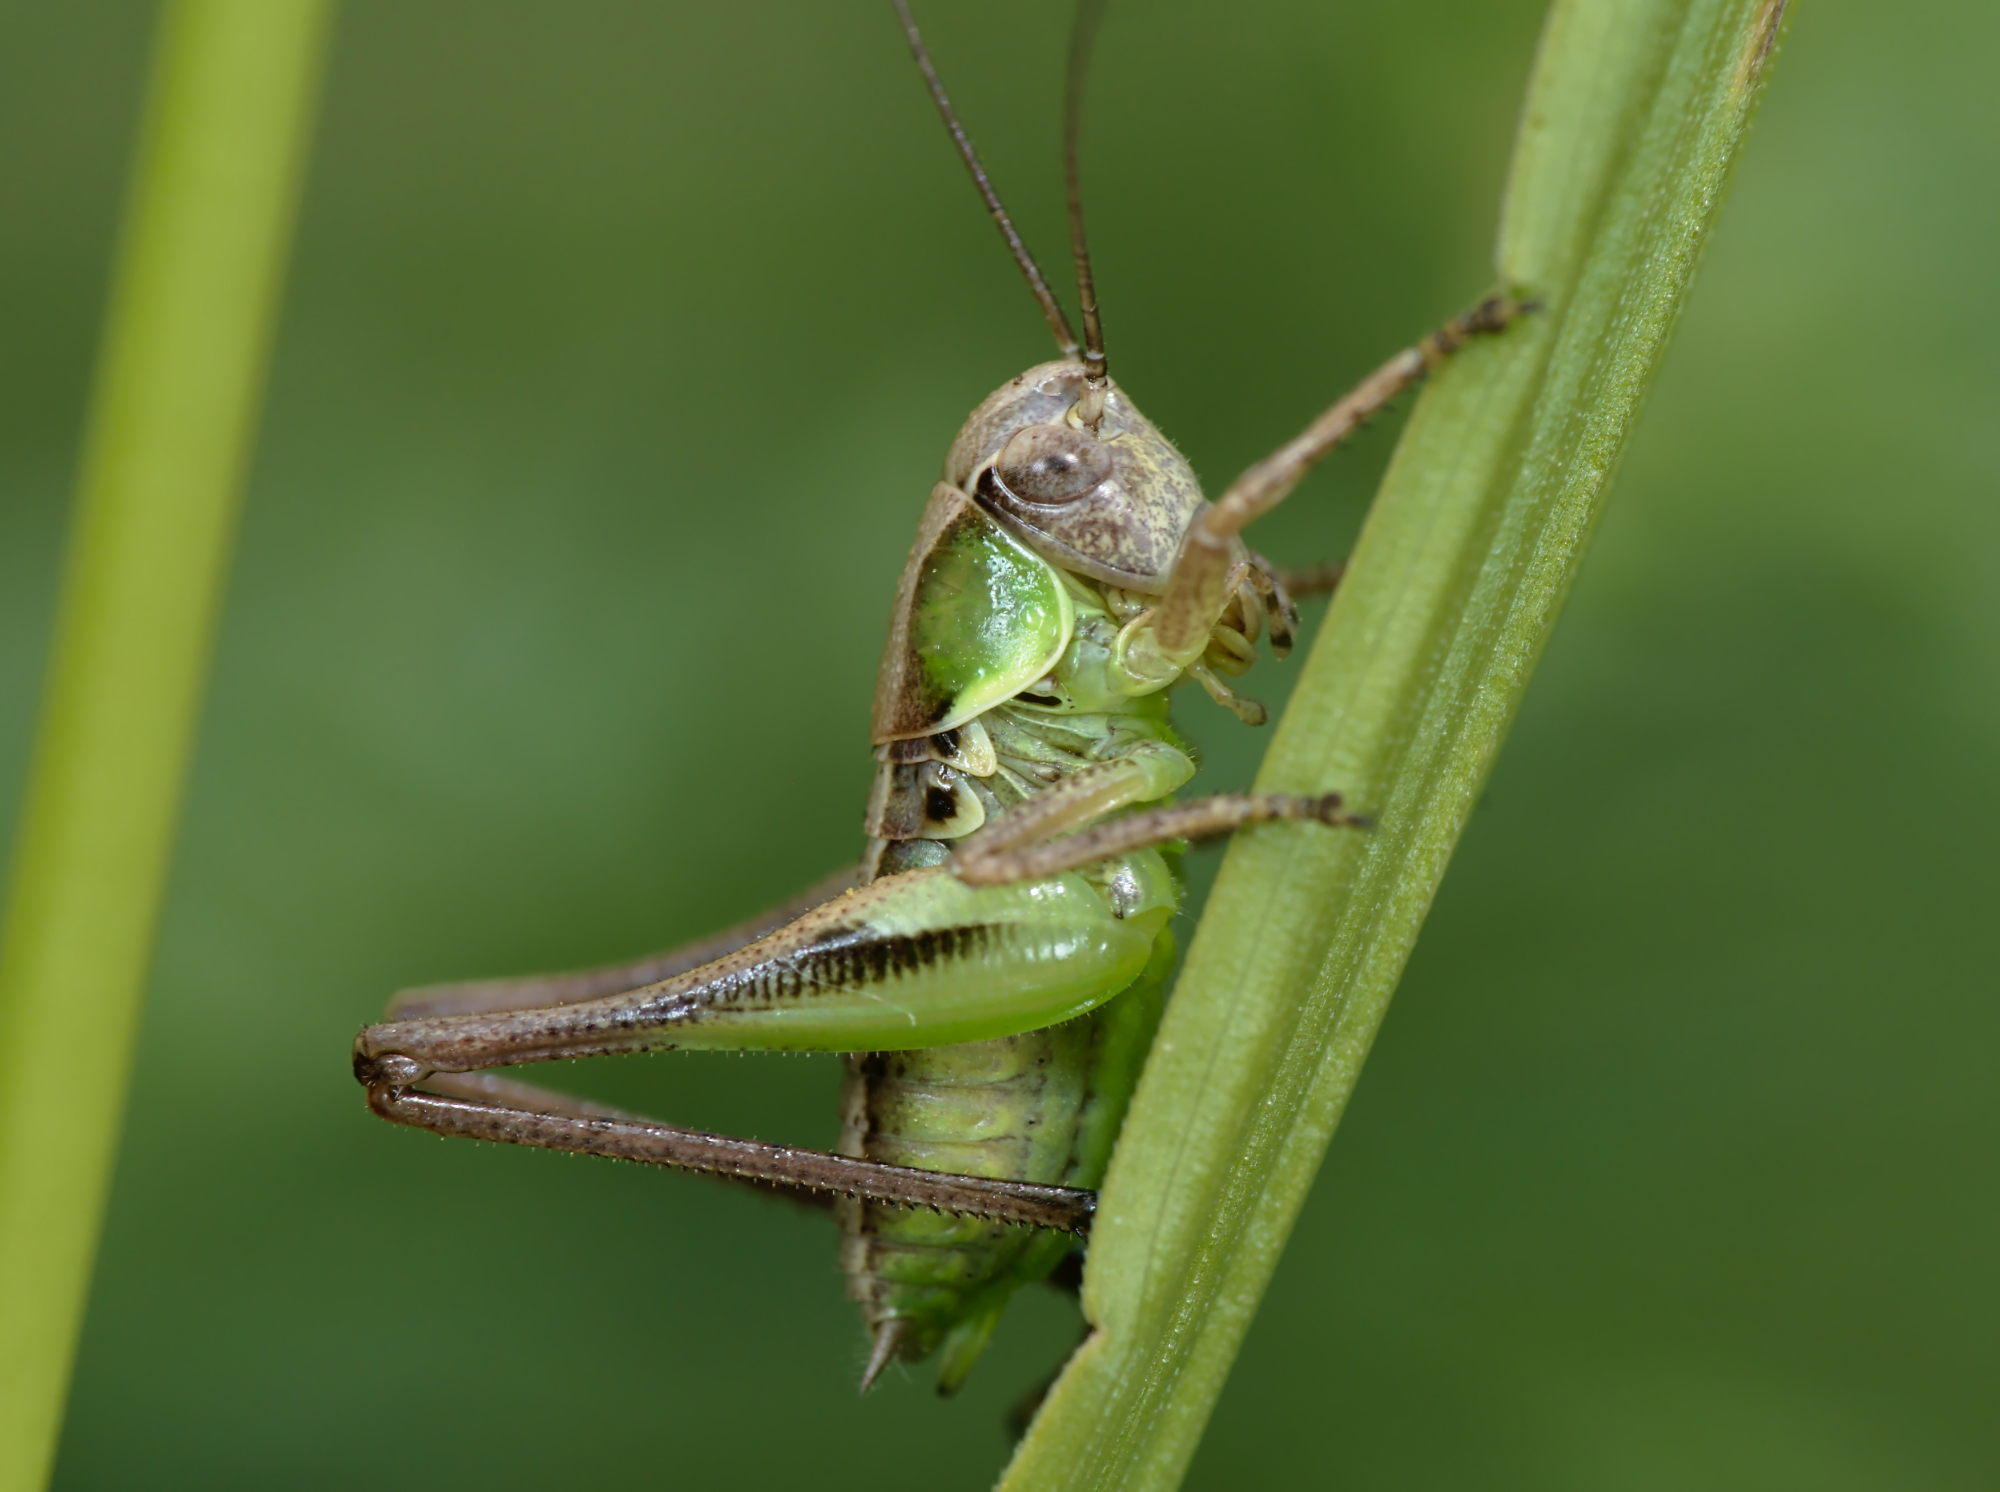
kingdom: Animalia
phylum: Arthropoda
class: Insecta
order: Orthoptera
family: Tettigoniidae
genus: Platycleis
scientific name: Platycleis albopunctata
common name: Grey bush-cricket
